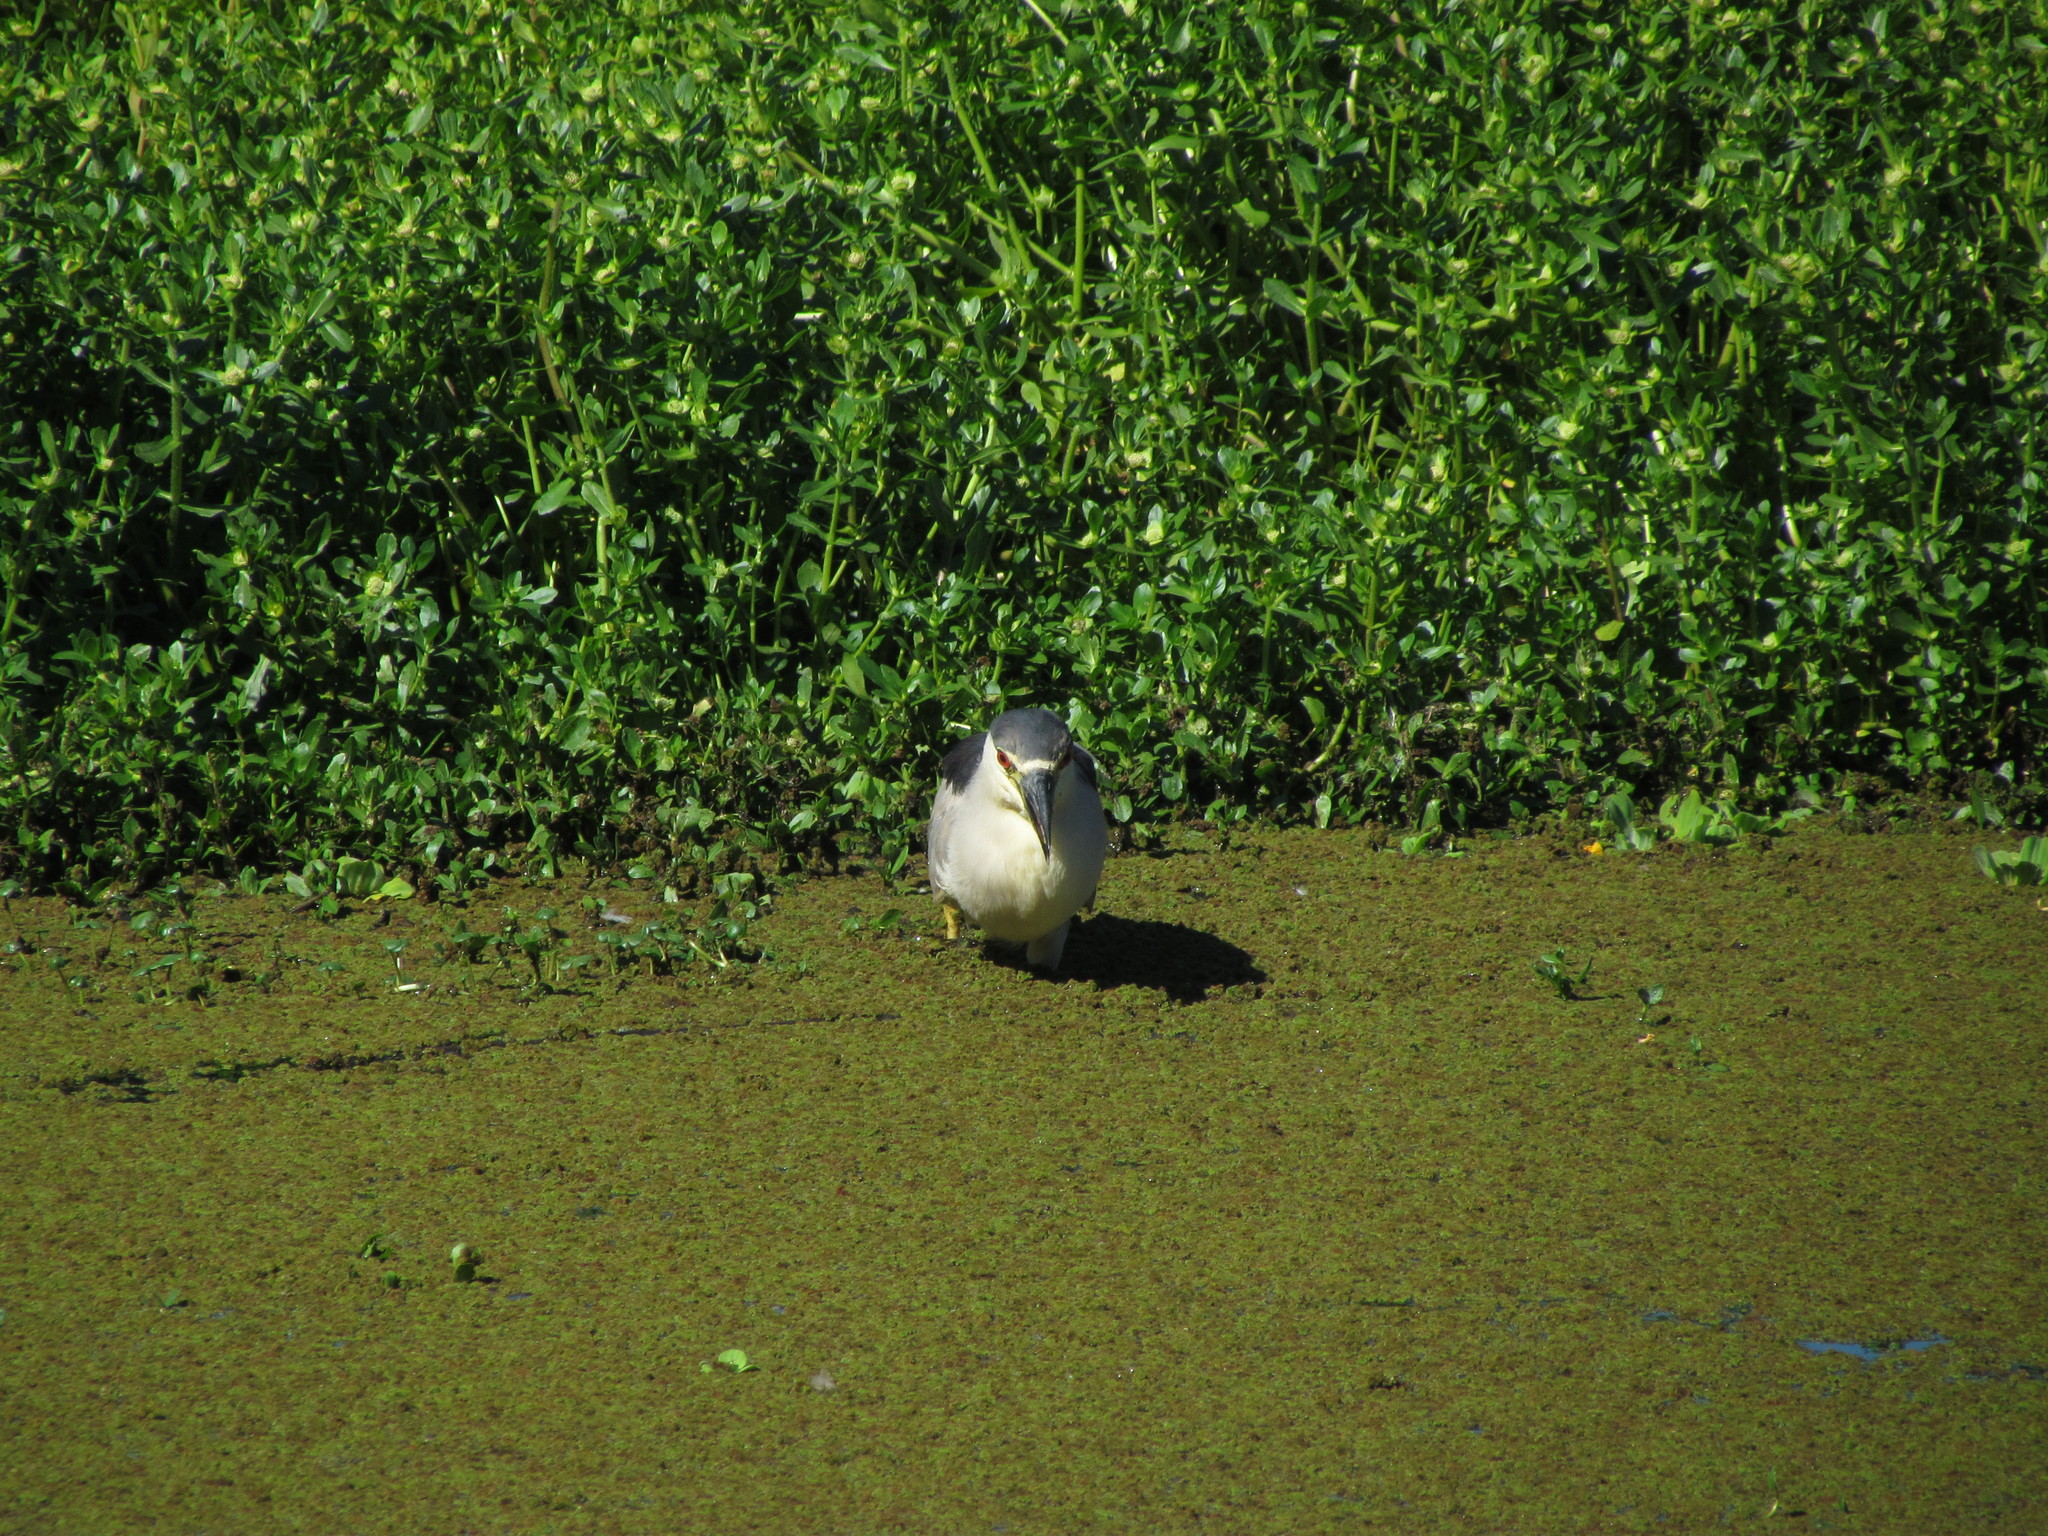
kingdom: Animalia
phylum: Chordata
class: Aves
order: Pelecaniformes
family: Ardeidae
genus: Nycticorax
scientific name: Nycticorax nycticorax
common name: Black-crowned night heron
